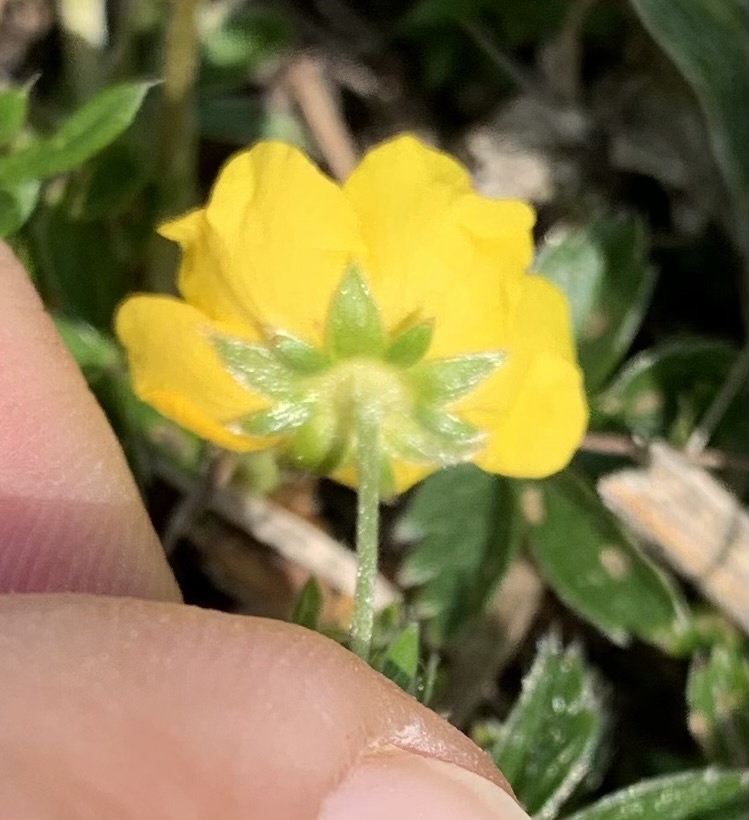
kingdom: Plantae
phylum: Tracheophyta
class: Magnoliopsida
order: Rosales
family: Rosaceae
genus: Potentilla
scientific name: Potentilla aurea
